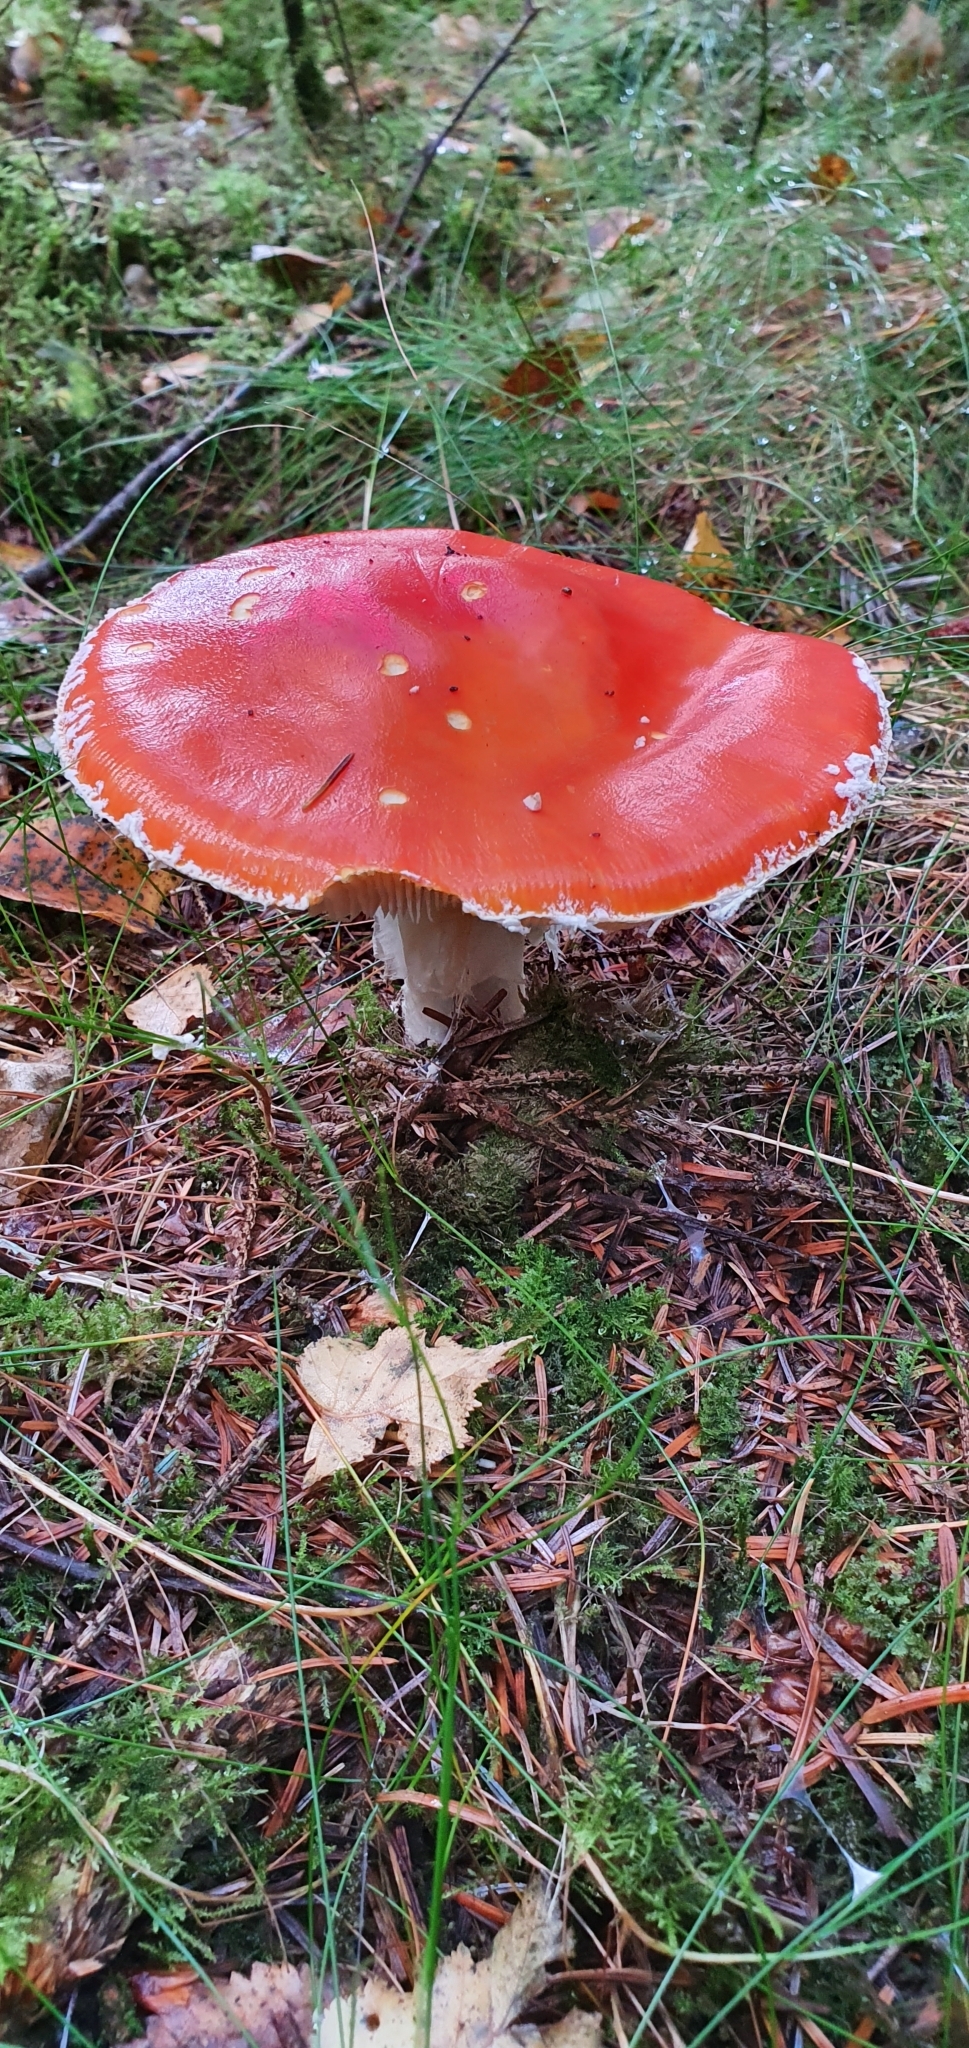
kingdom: Fungi
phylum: Basidiomycota
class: Agaricomycetes
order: Agaricales
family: Amanitaceae
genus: Amanita
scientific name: Amanita muscaria
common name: Fly agaric
